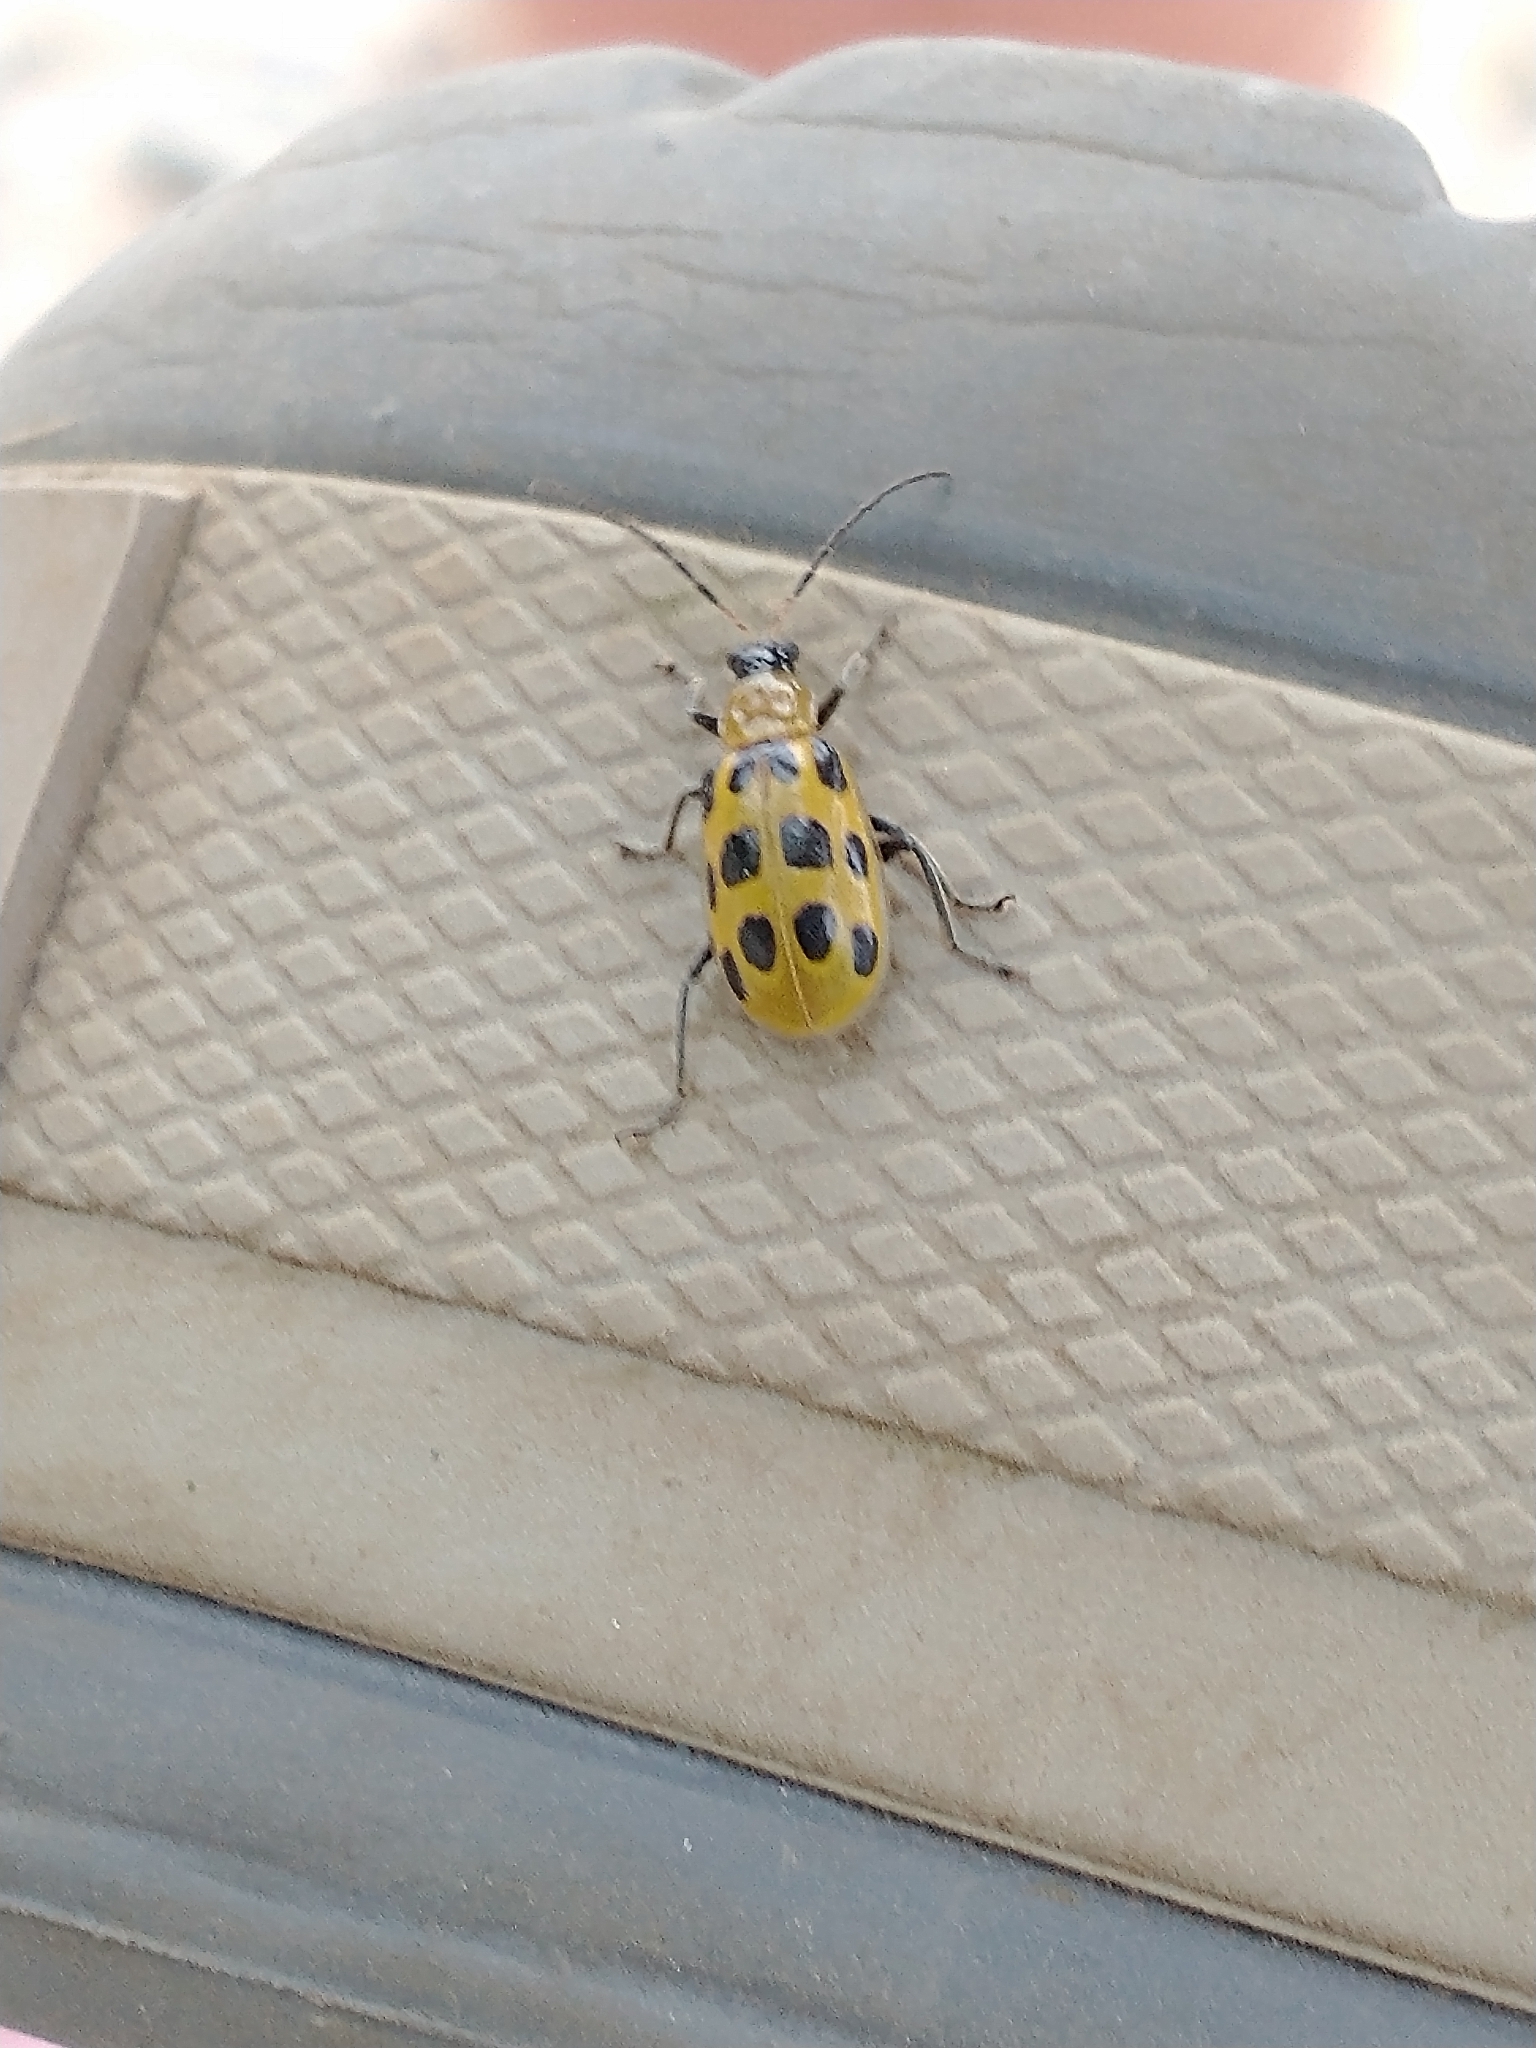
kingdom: Animalia
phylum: Arthropoda
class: Insecta
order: Coleoptera
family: Chrysomelidae
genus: Diabrotica
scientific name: Diabrotica undecimpunctata
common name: Spotted cucumber beetle
